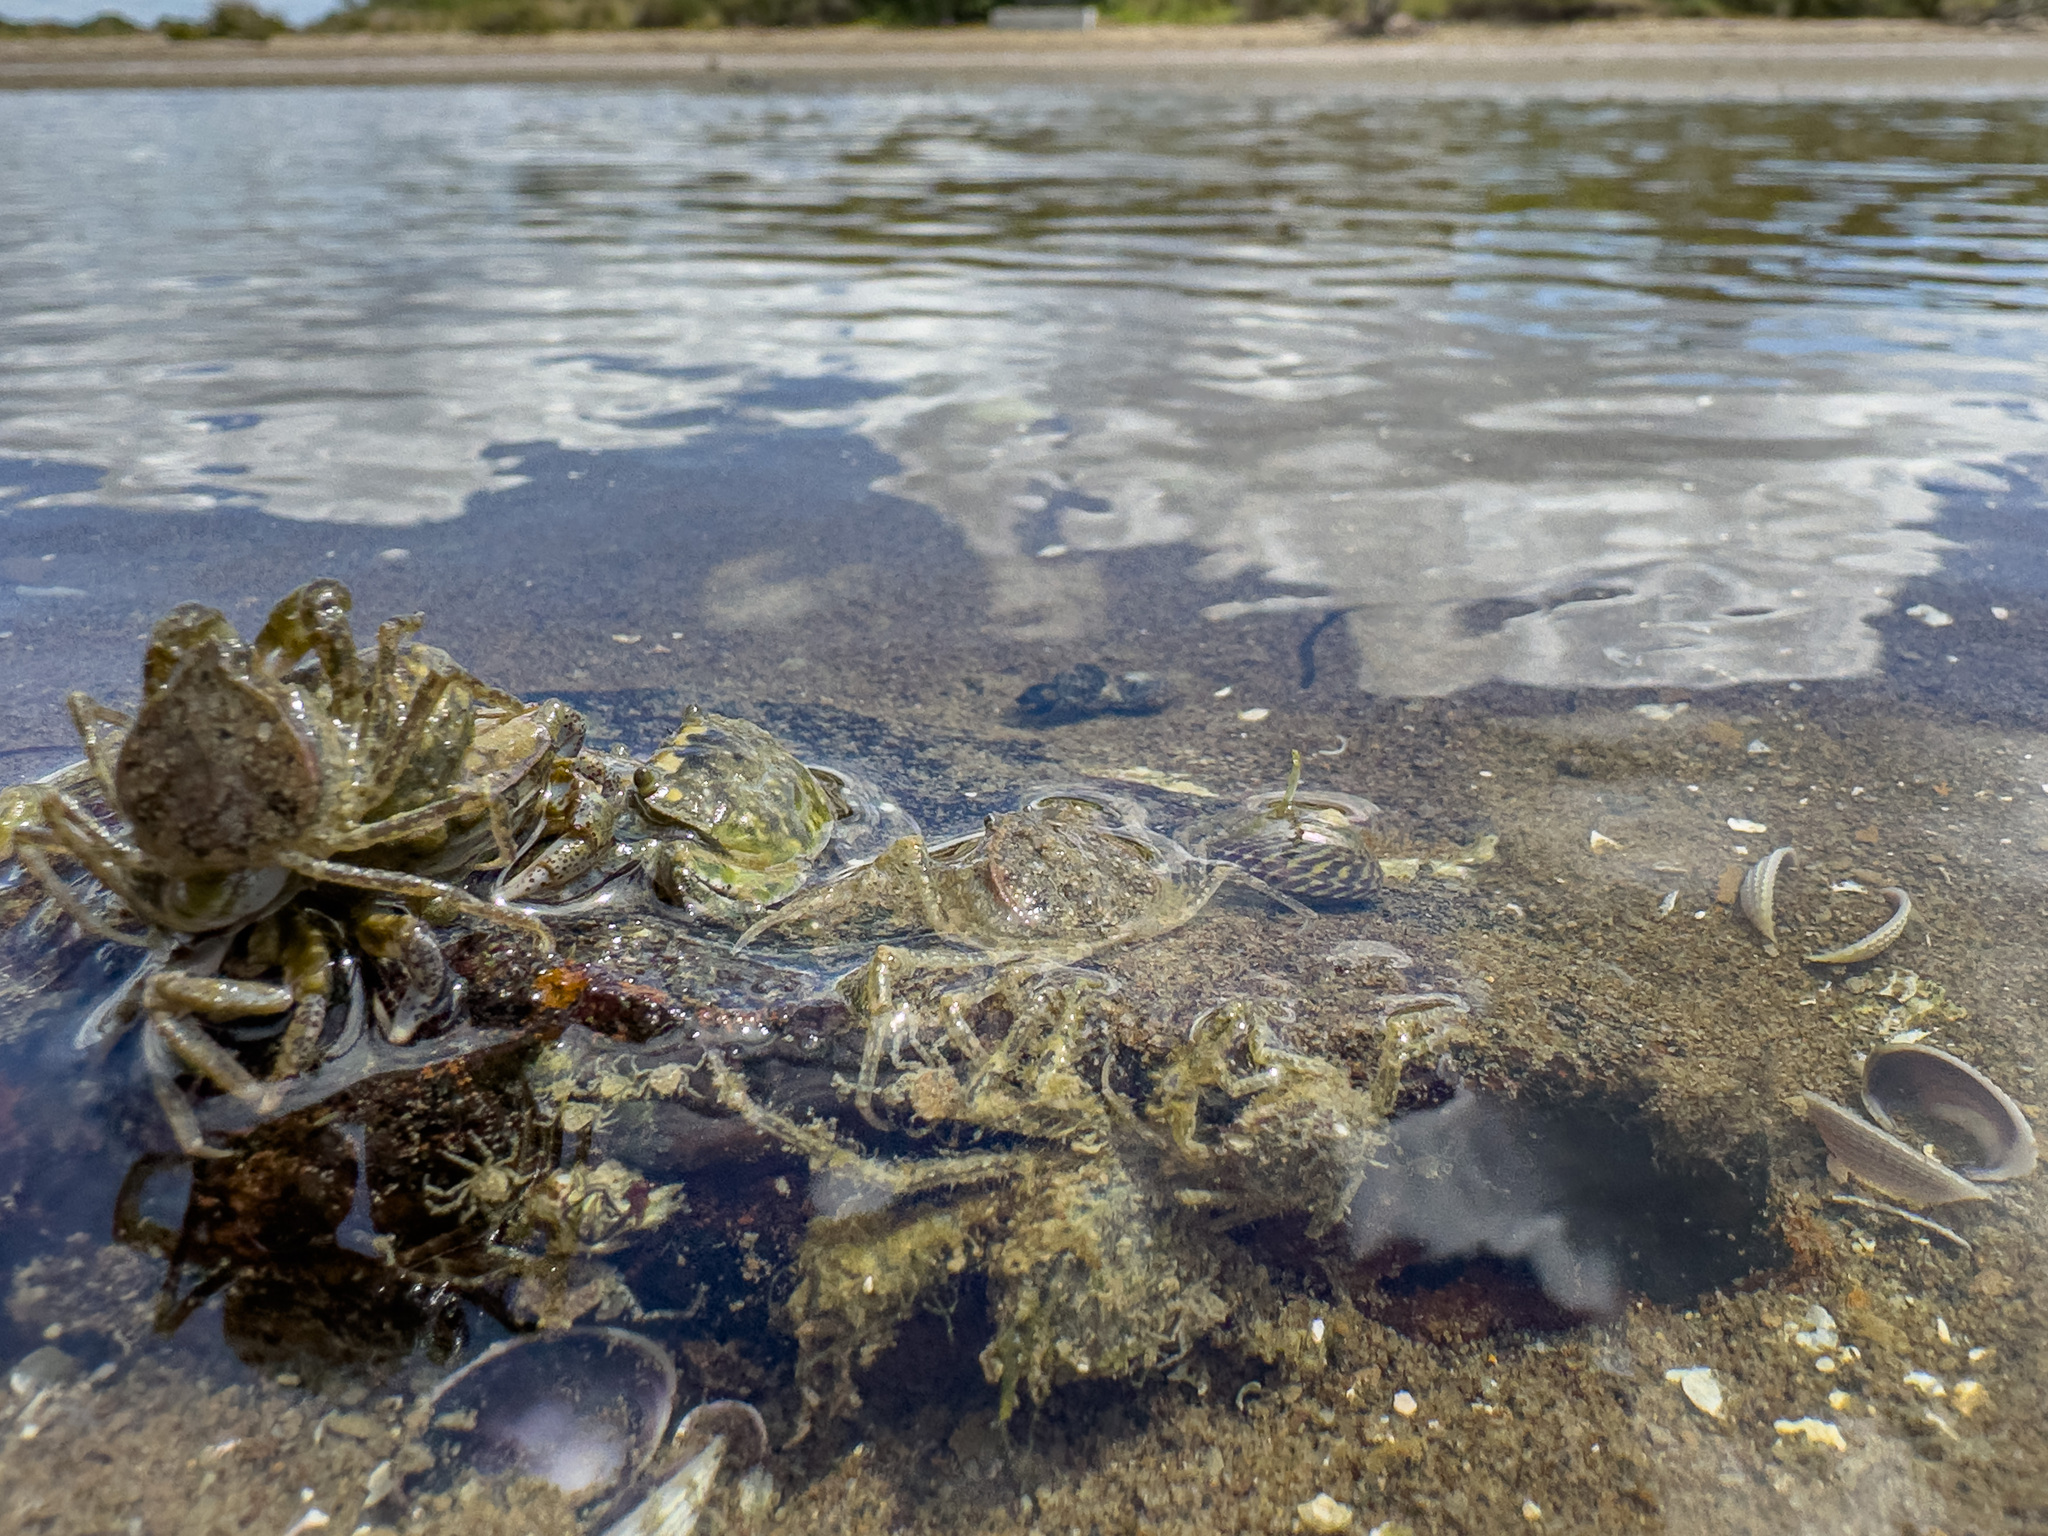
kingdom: Animalia
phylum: Arthropoda
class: Malacostraca
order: Decapoda
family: Hymenosomatidae
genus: Halicarcinus
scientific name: Halicarcinus whitei
